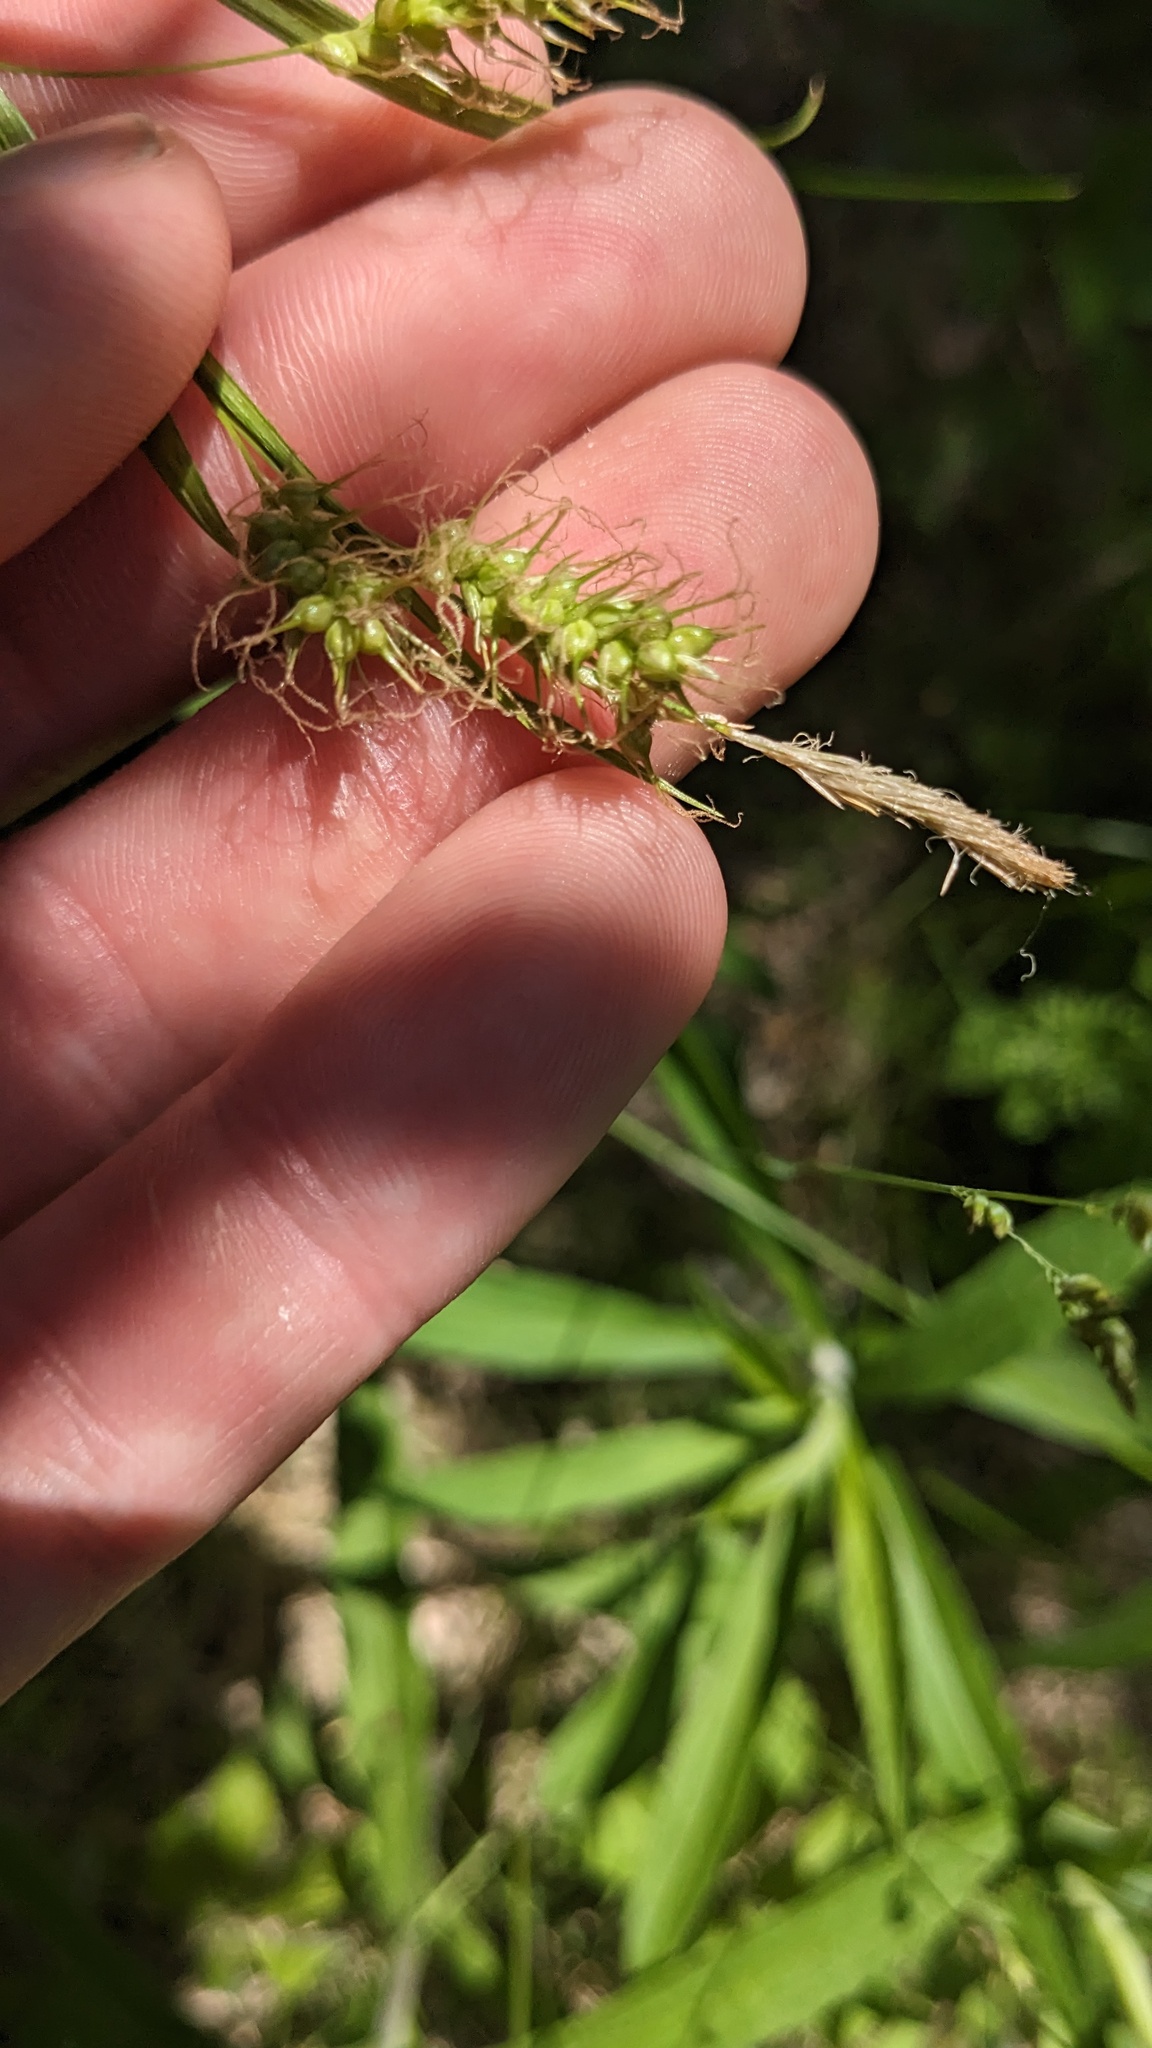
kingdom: Plantae
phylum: Tracheophyta
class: Liliopsida
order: Poales
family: Cyperaceae
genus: Carex
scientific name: Carex sprengelii
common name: Long-beaked sedge
